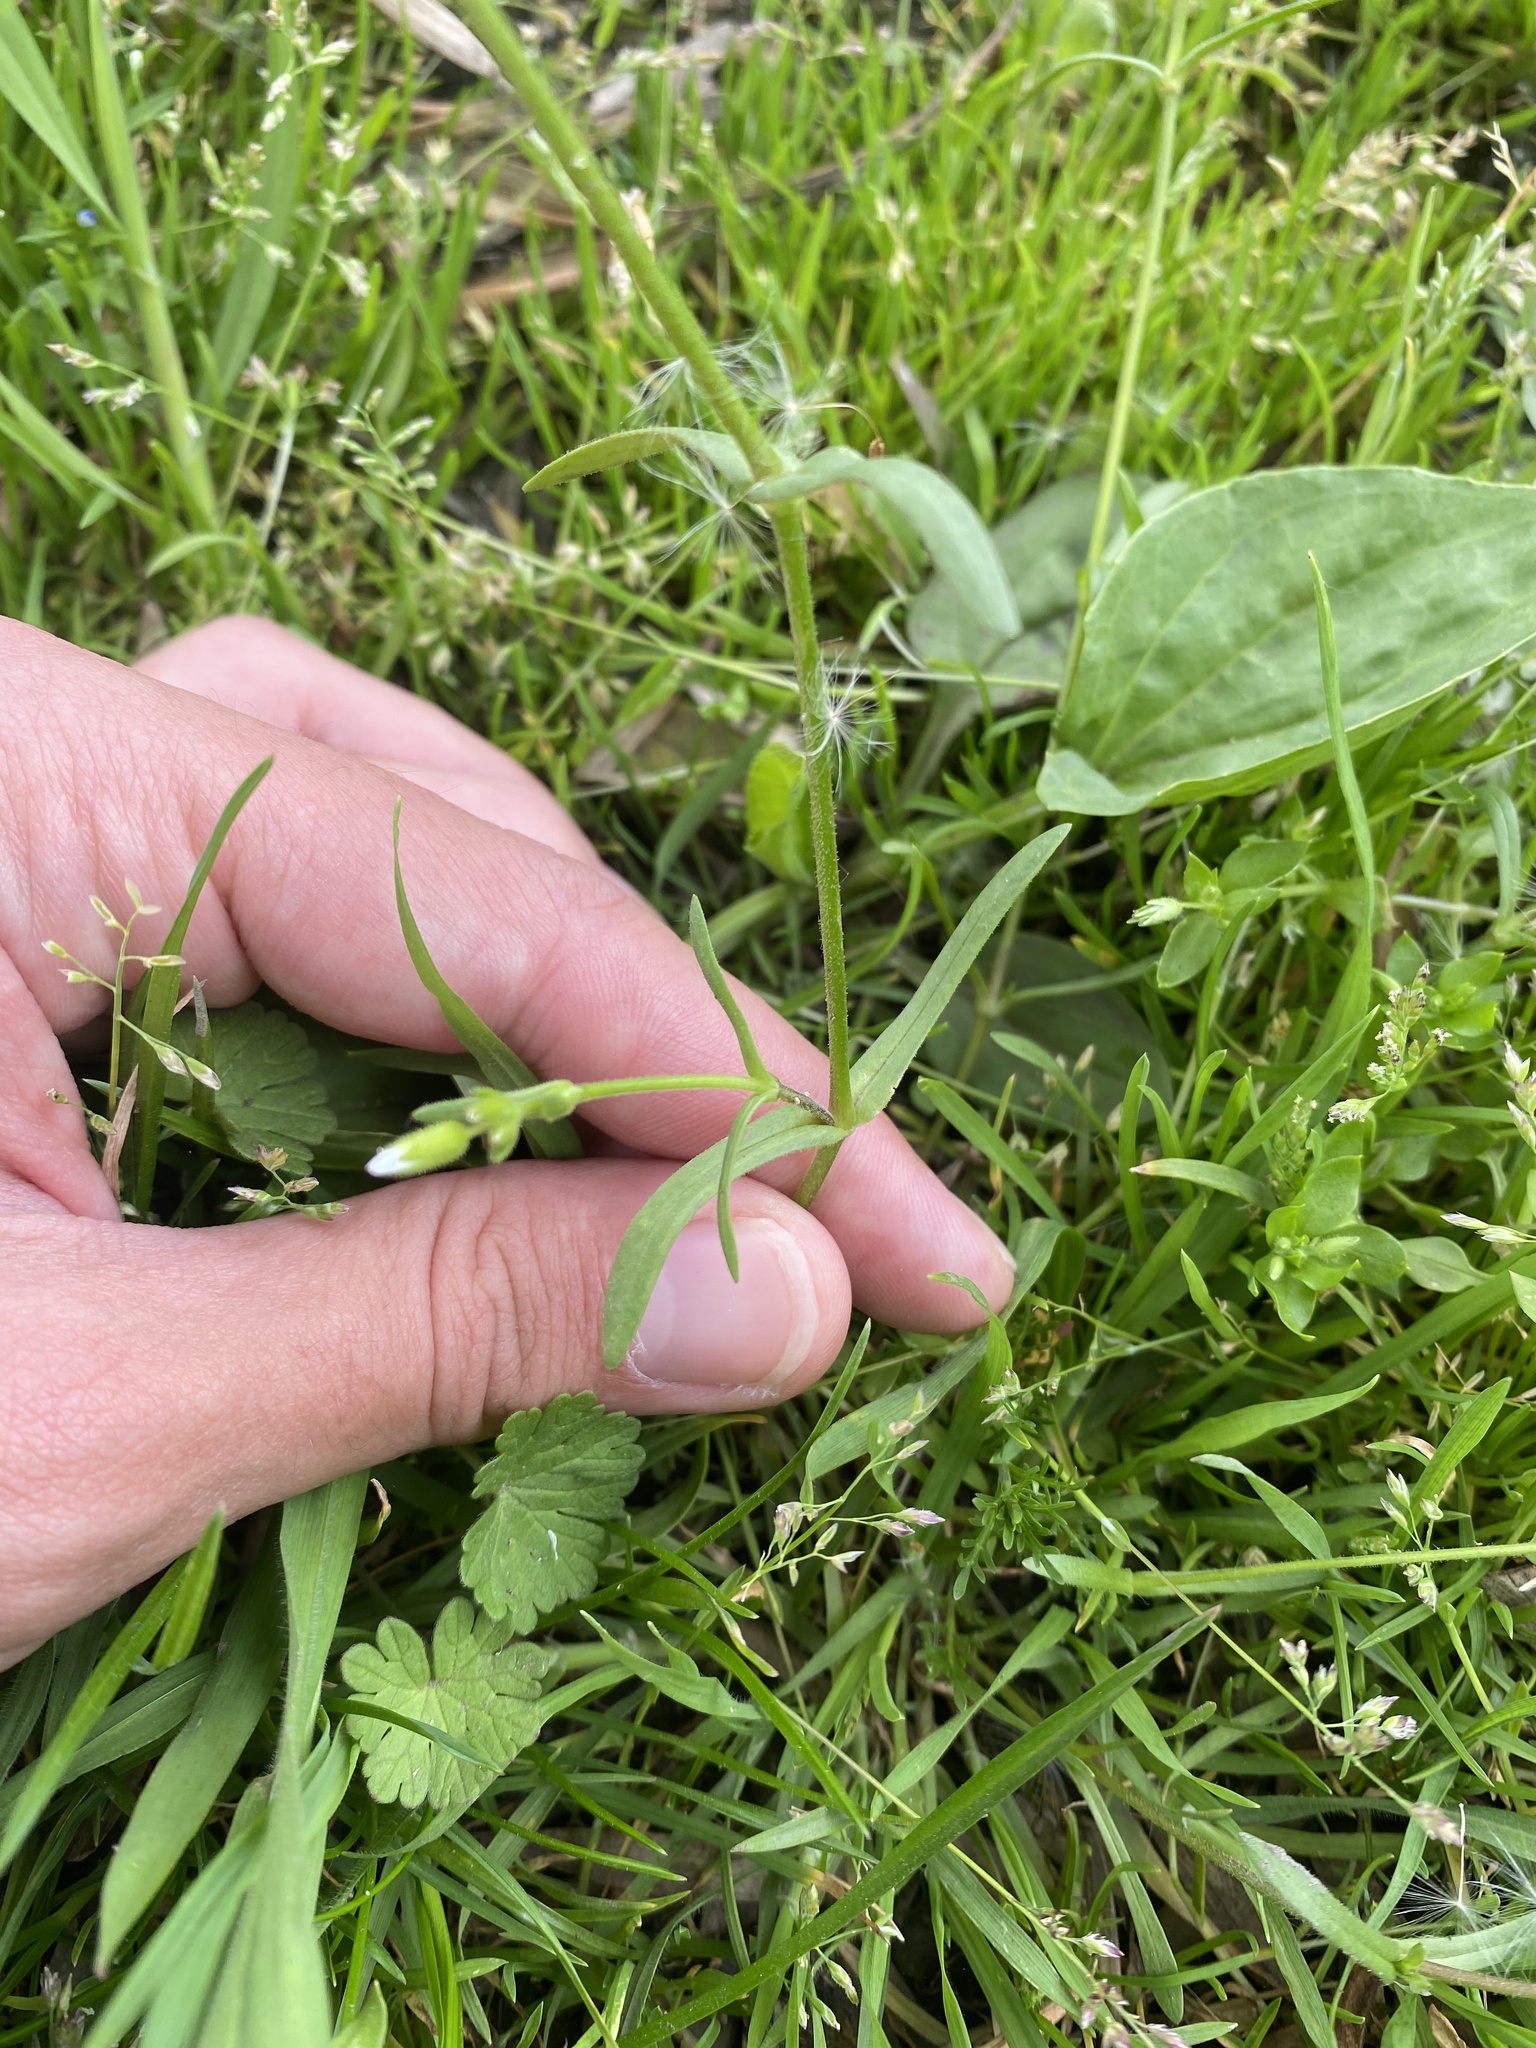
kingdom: Plantae
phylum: Tracheophyta
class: Magnoliopsida
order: Caryophyllales
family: Caryophyllaceae
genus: Dichodon
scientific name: Dichodon viscidum
